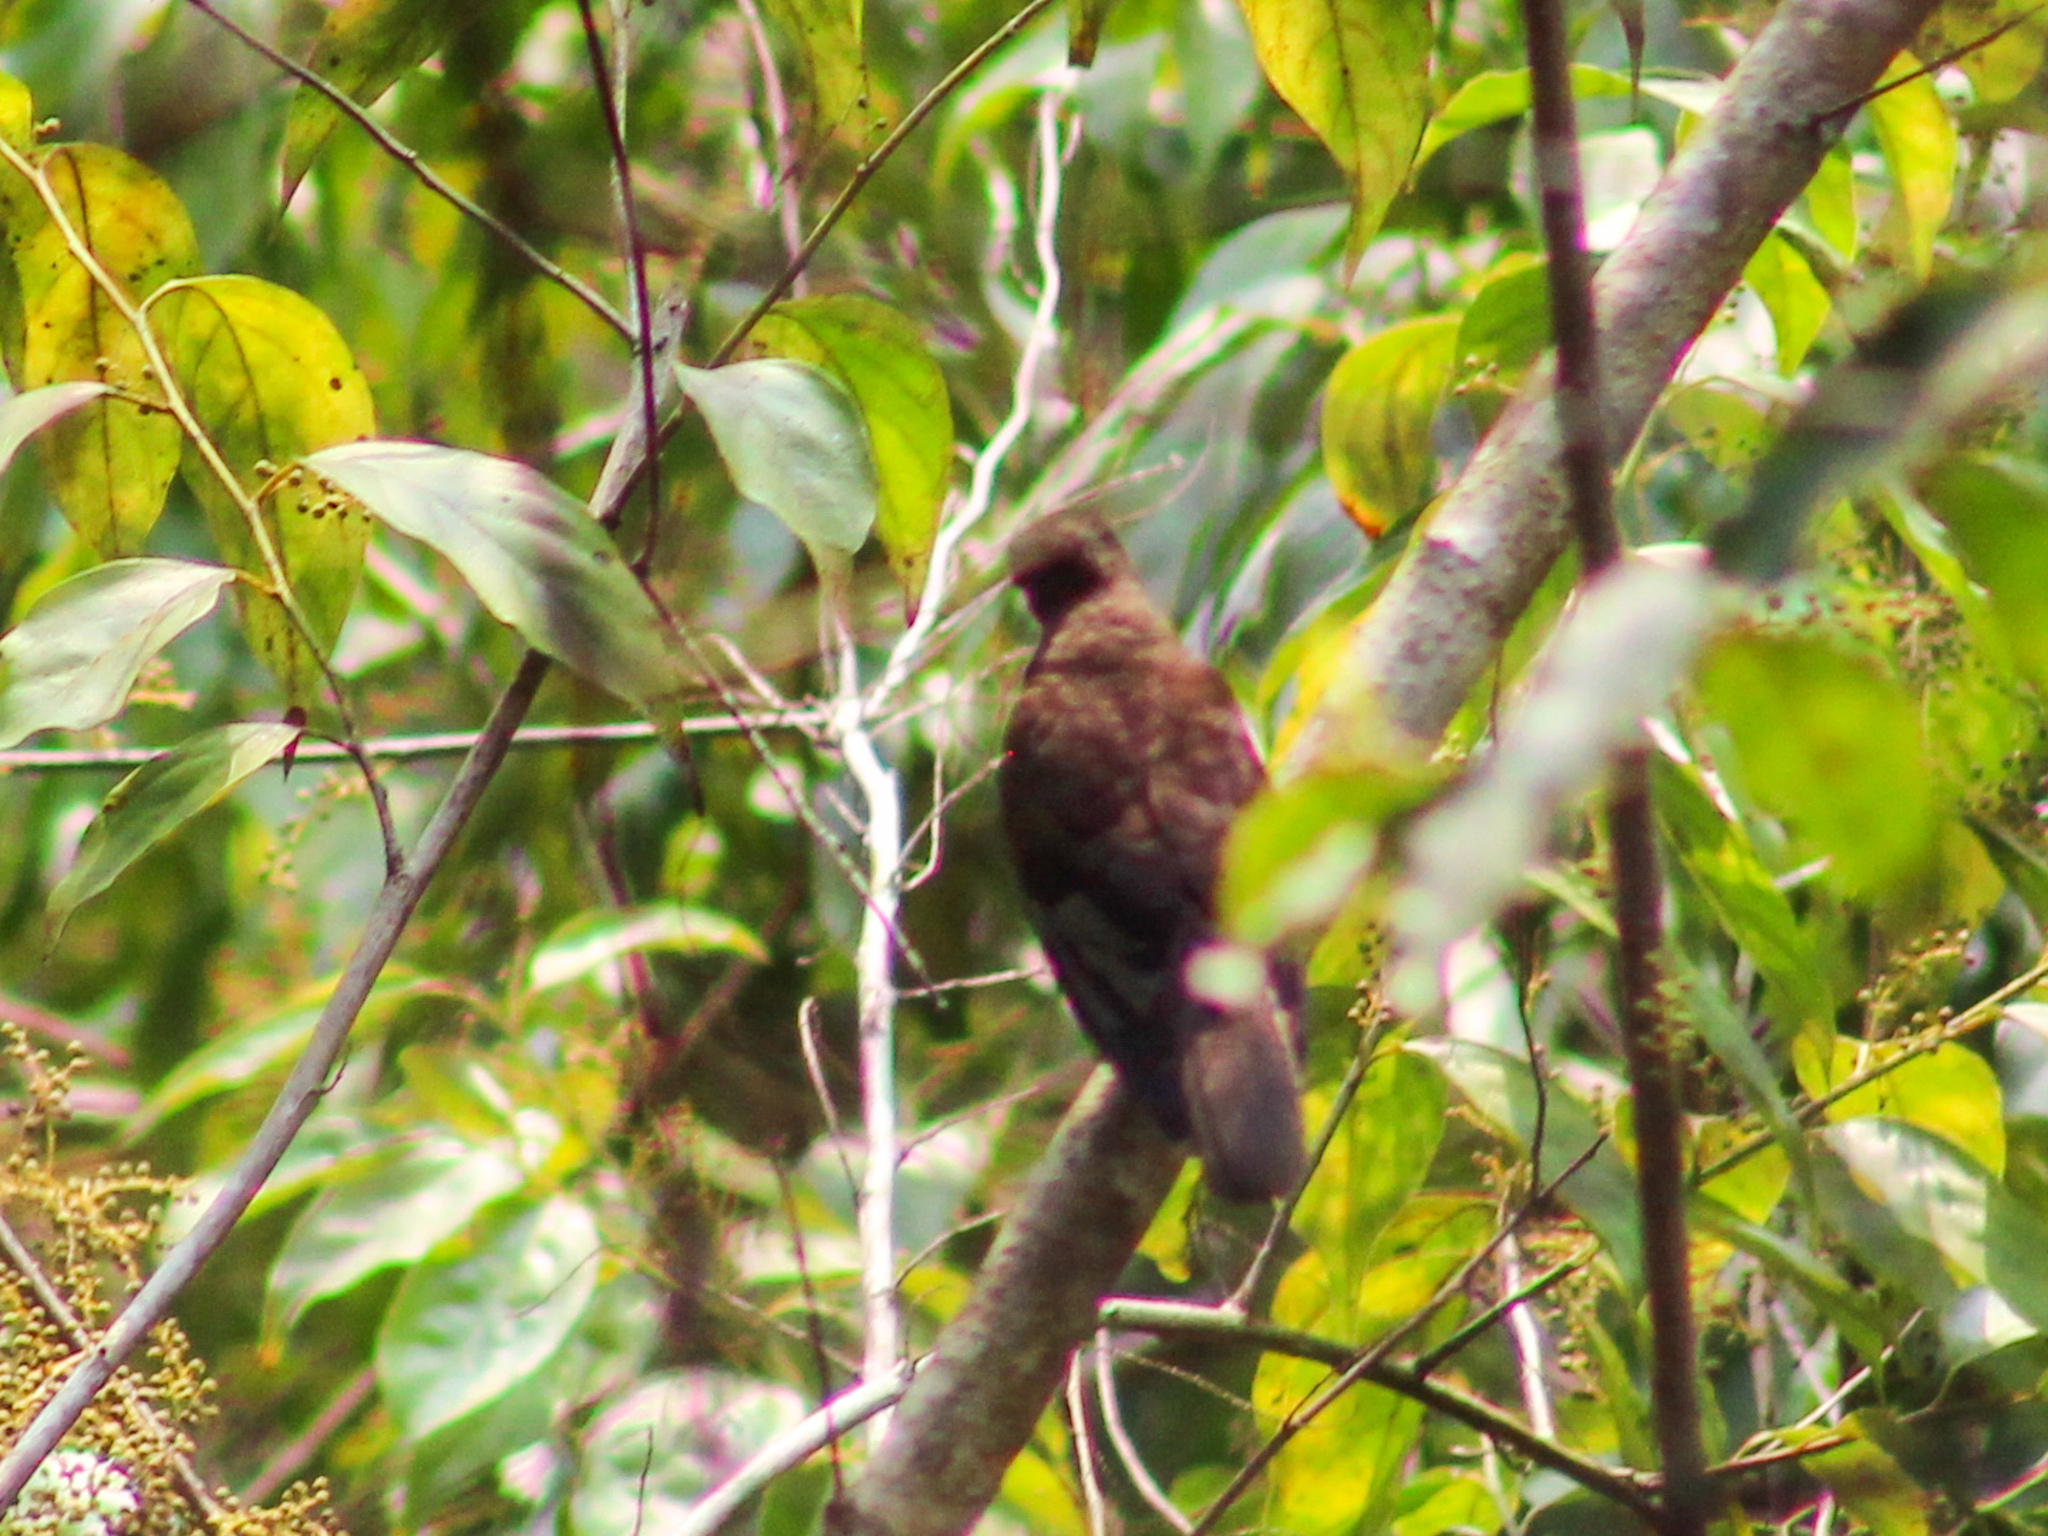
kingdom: Animalia
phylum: Chordata
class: Aves
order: Cuculiformes
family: Cuculidae
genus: Chrysococcyx
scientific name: Chrysococcyx xanthorhynchus
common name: Violet cuckoo
